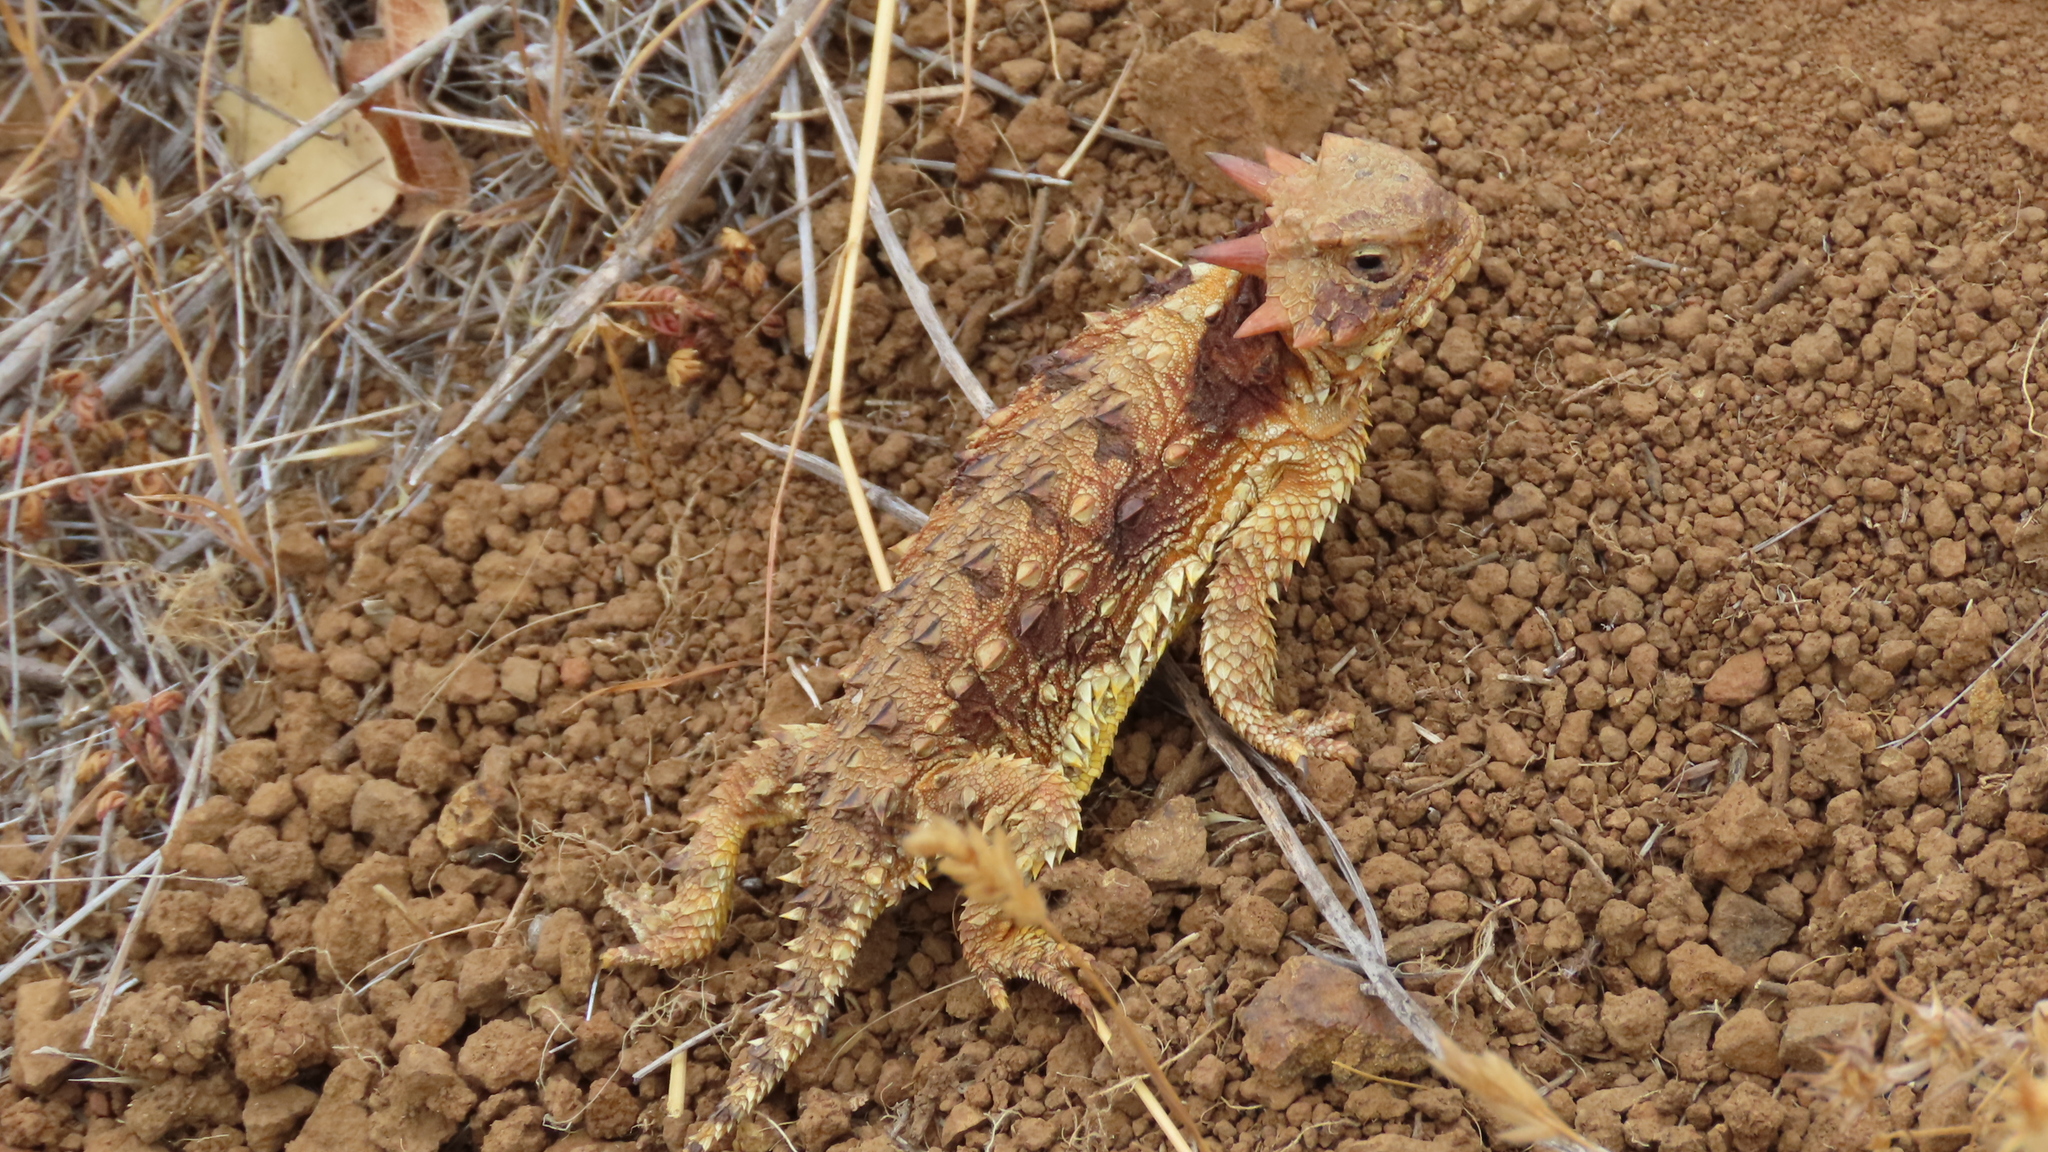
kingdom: Animalia
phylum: Chordata
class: Squamata
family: Phrynosomatidae
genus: Phrynosoma
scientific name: Phrynosoma blainvillii
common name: San diego horned lizard
